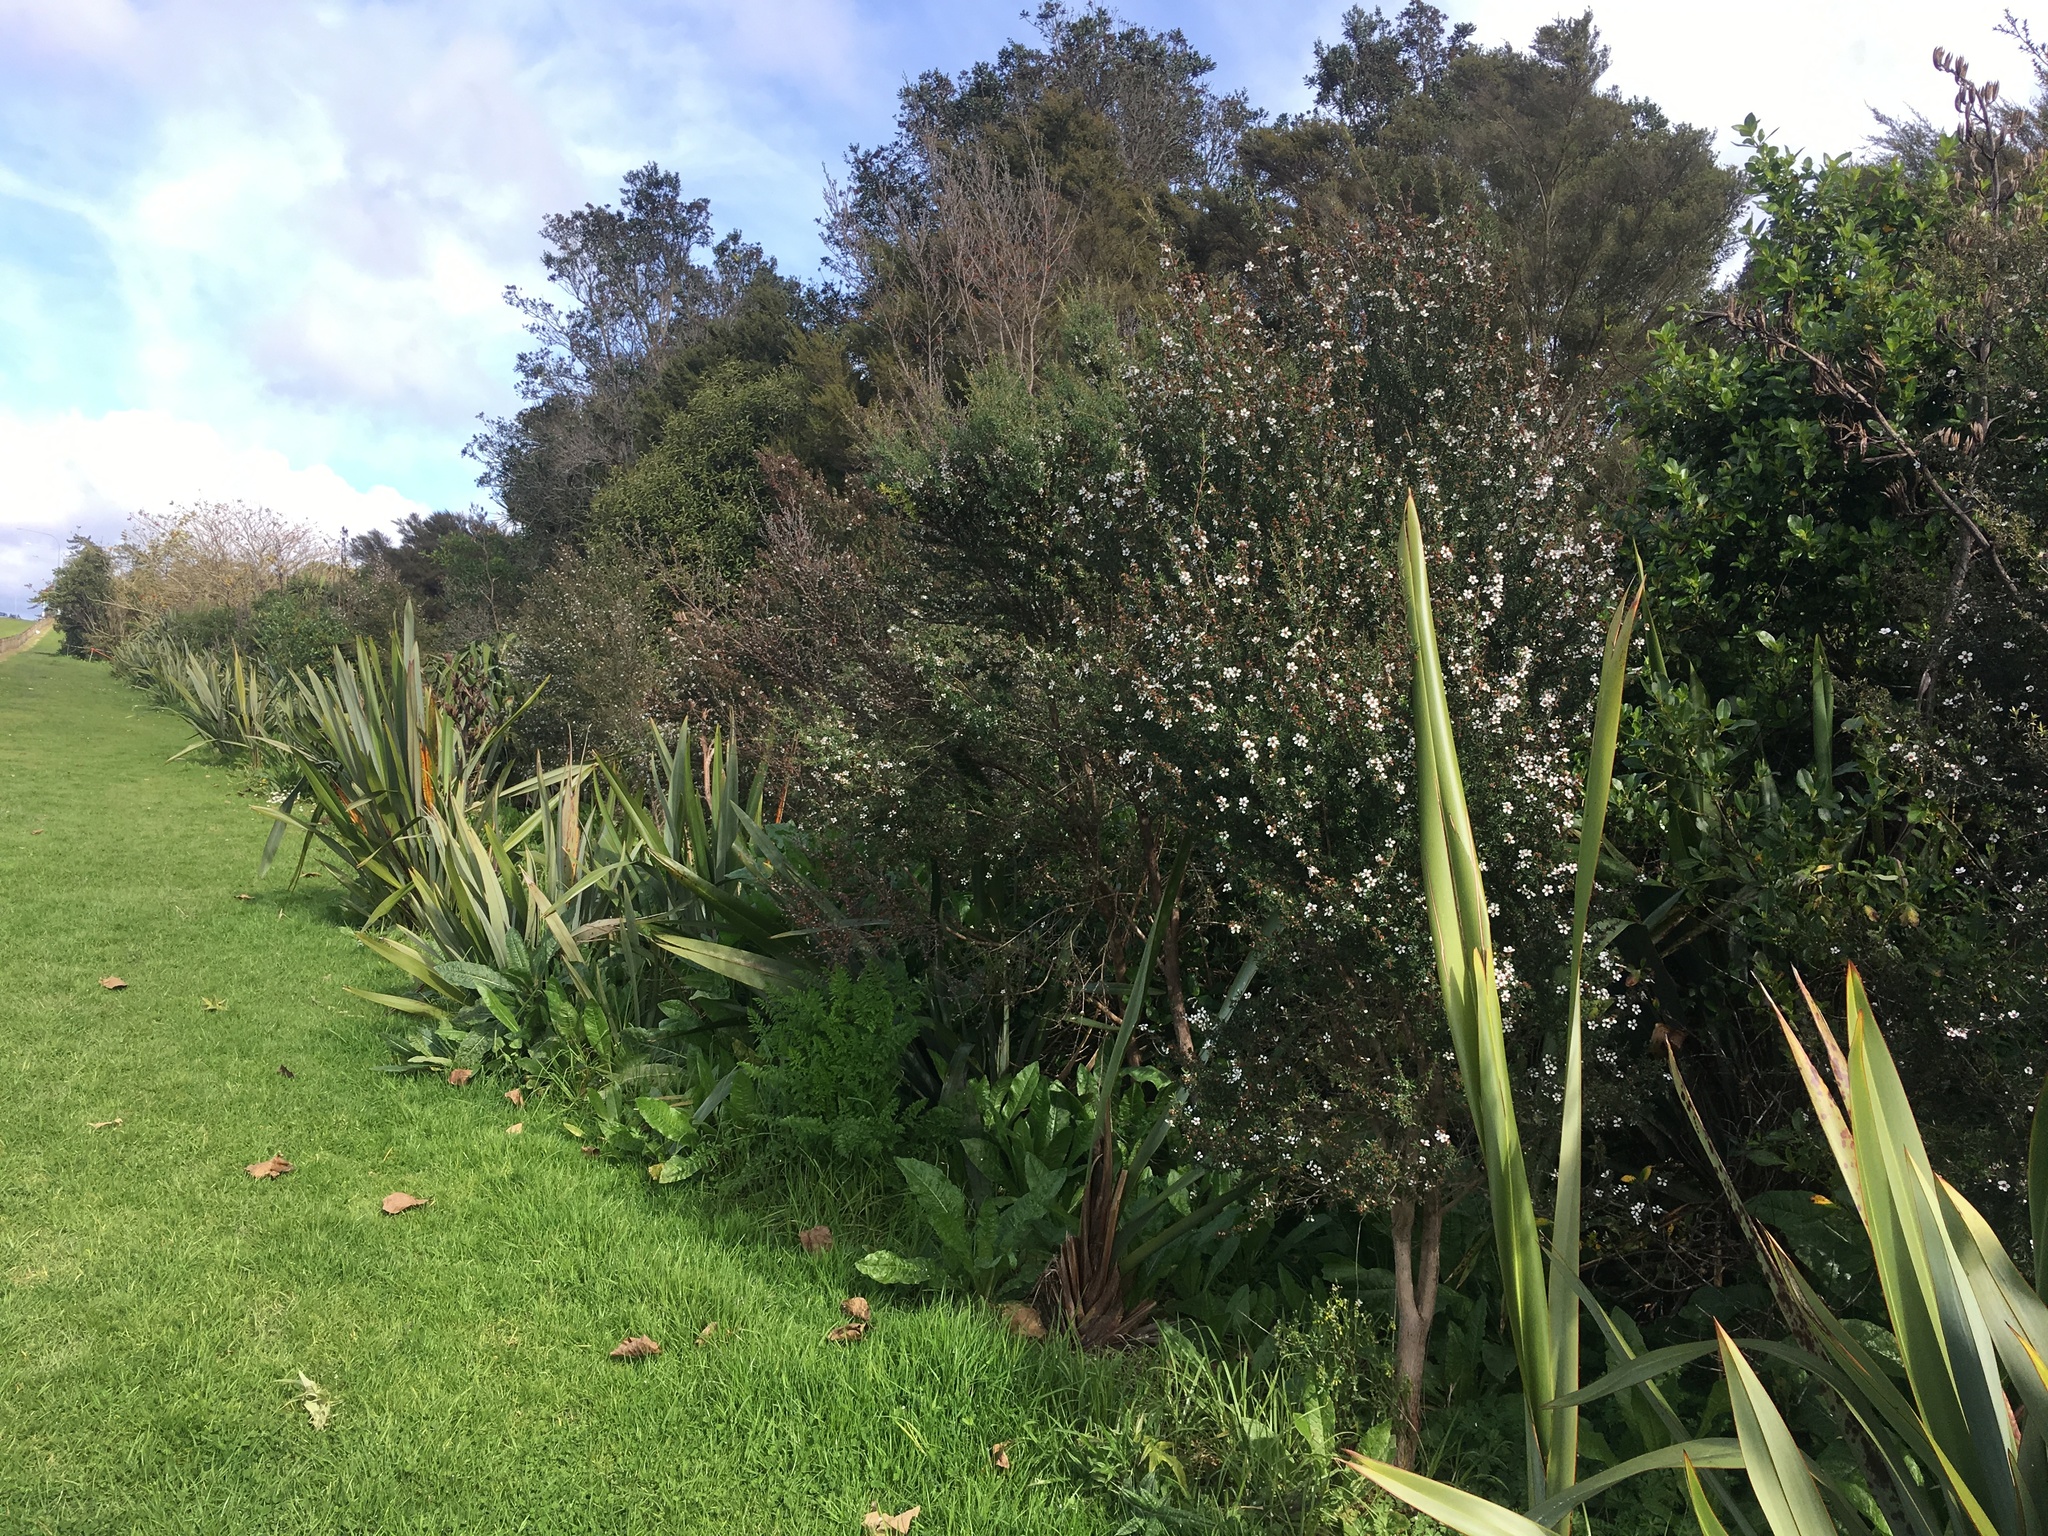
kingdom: Plantae
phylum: Tracheophyta
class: Magnoliopsida
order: Myrtales
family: Myrtaceae
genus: Leptospermum
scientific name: Leptospermum scoparium
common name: Broom tea-tree
